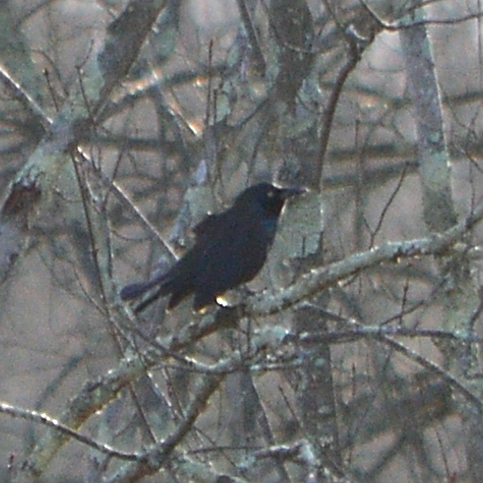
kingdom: Animalia
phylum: Chordata
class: Aves
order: Passeriformes
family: Icteridae
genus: Quiscalus
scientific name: Quiscalus quiscula
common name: Common grackle
